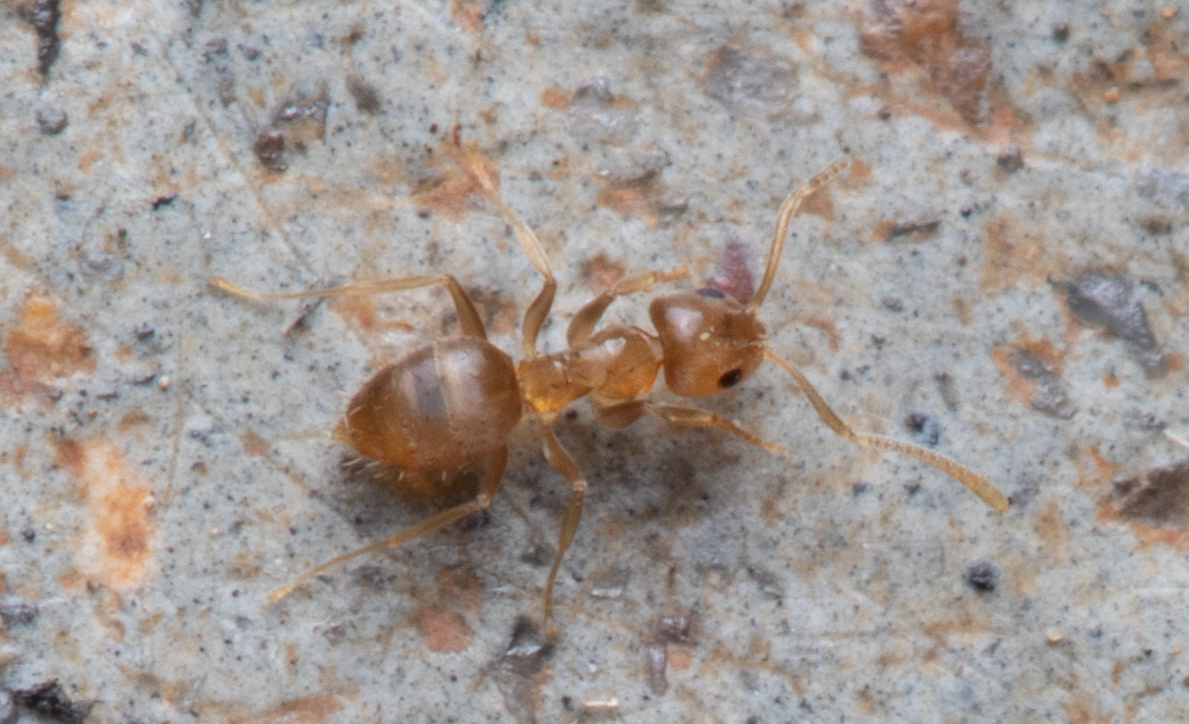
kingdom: Animalia
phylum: Arthropoda
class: Insecta
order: Hymenoptera
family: Formicidae
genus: Paraparatrechina
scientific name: Paraparatrechina minutula
